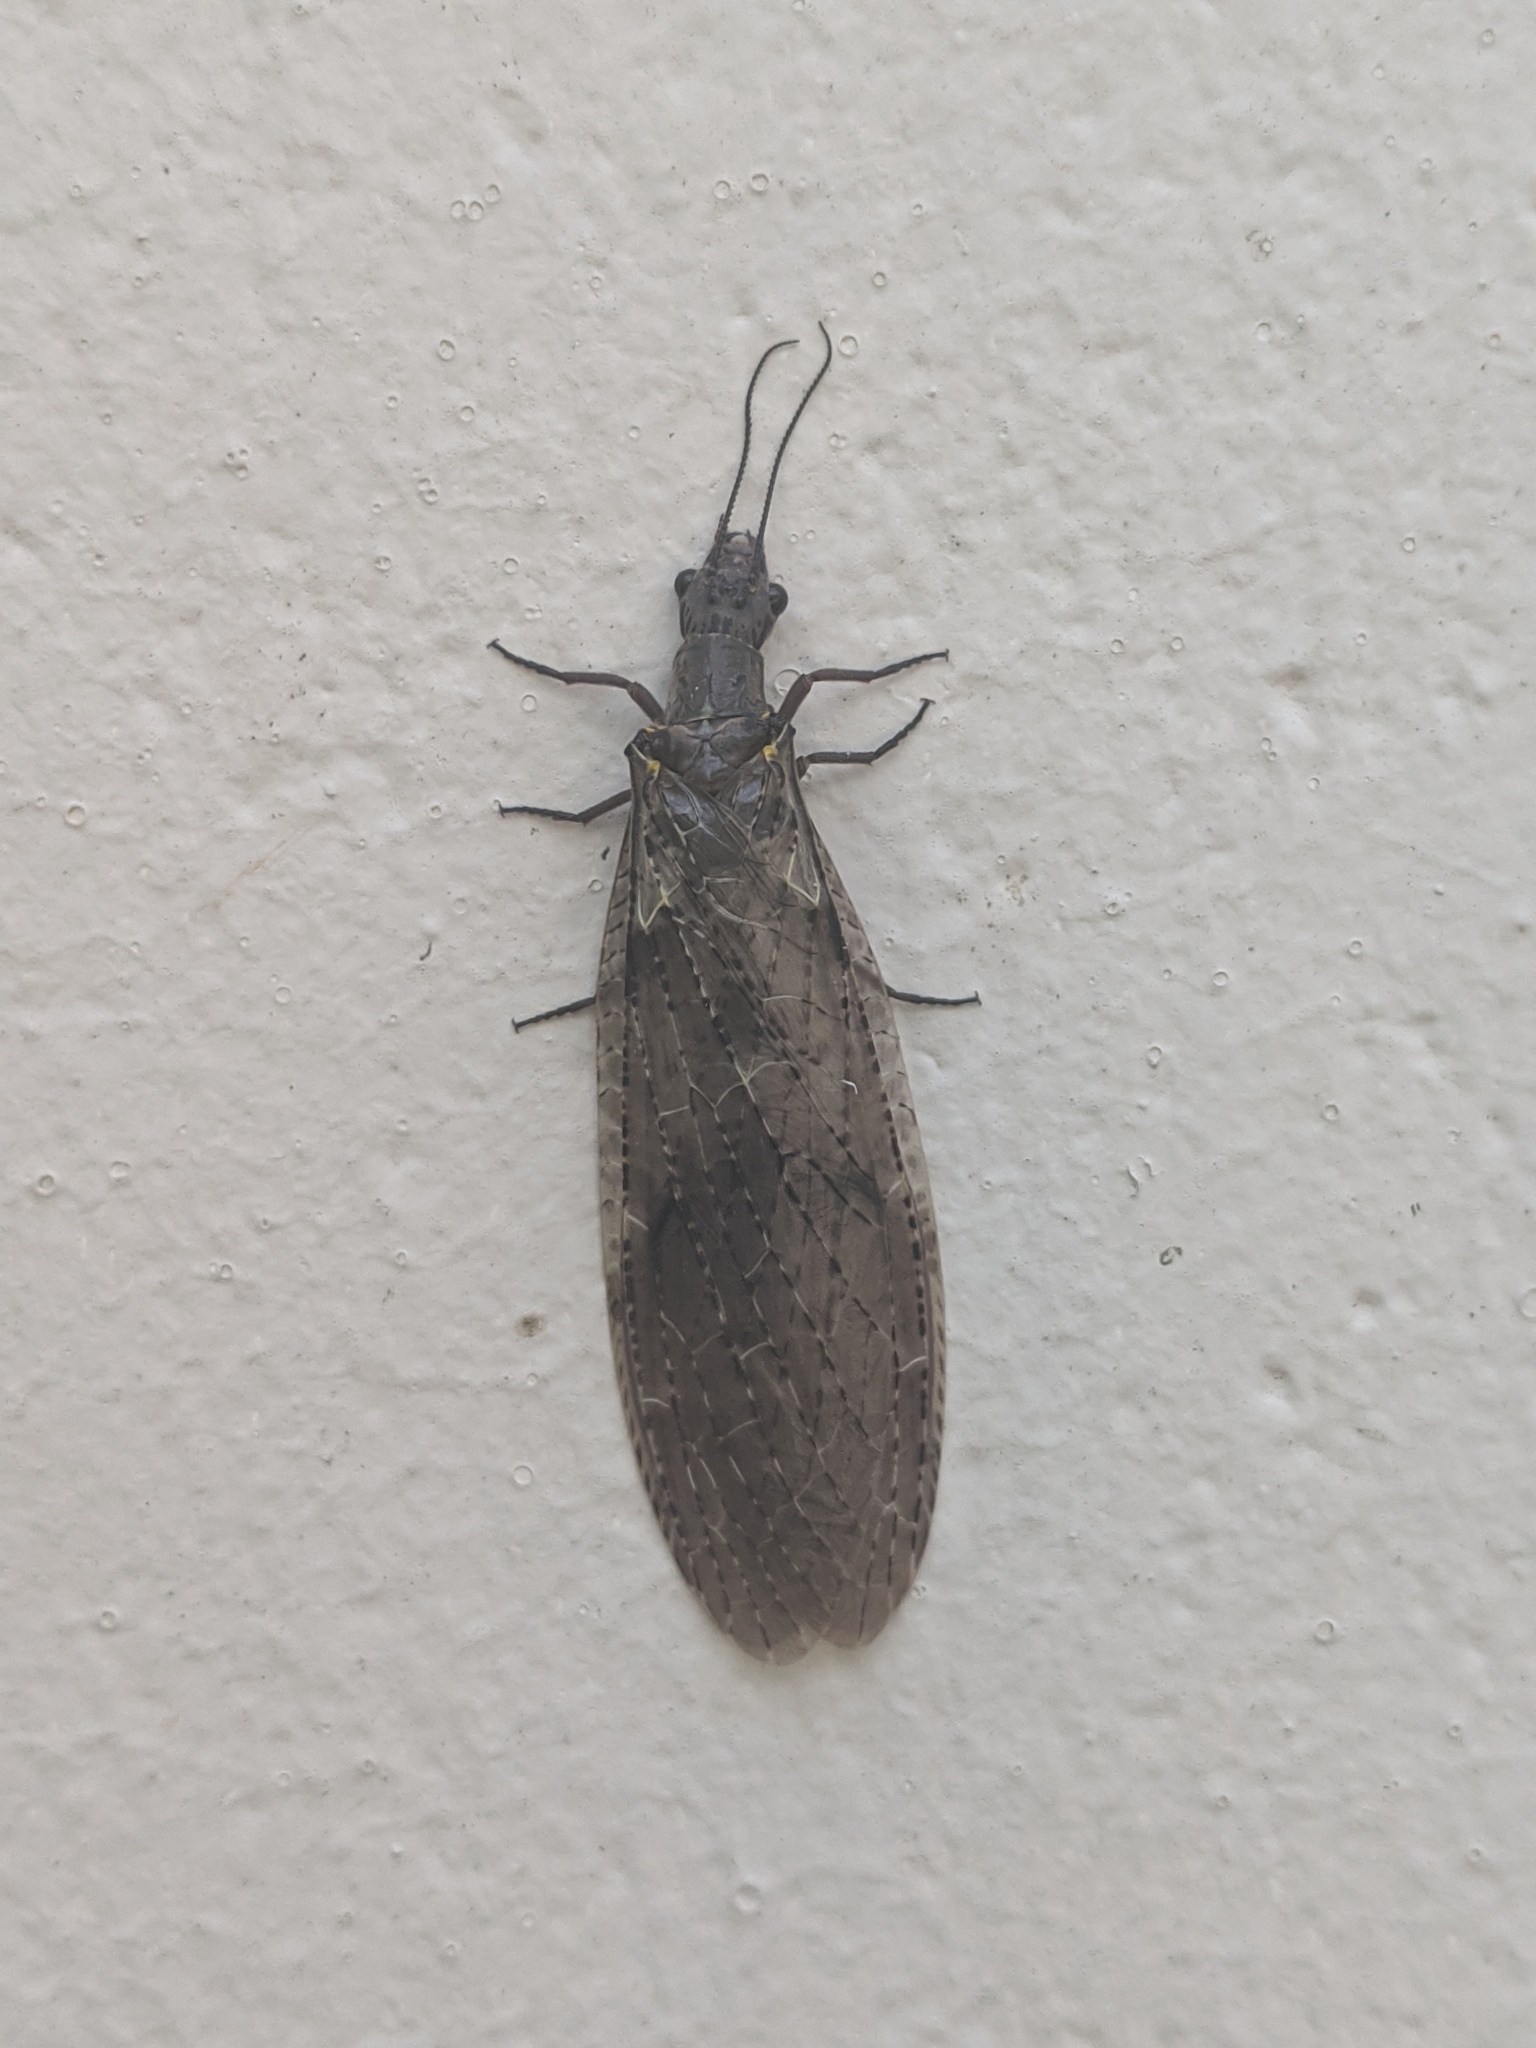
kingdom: Animalia
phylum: Arthropoda
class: Insecta
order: Megaloptera
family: Corydalidae
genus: Chauliodes
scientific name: Chauliodes rastricornis
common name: Spring fishfly
